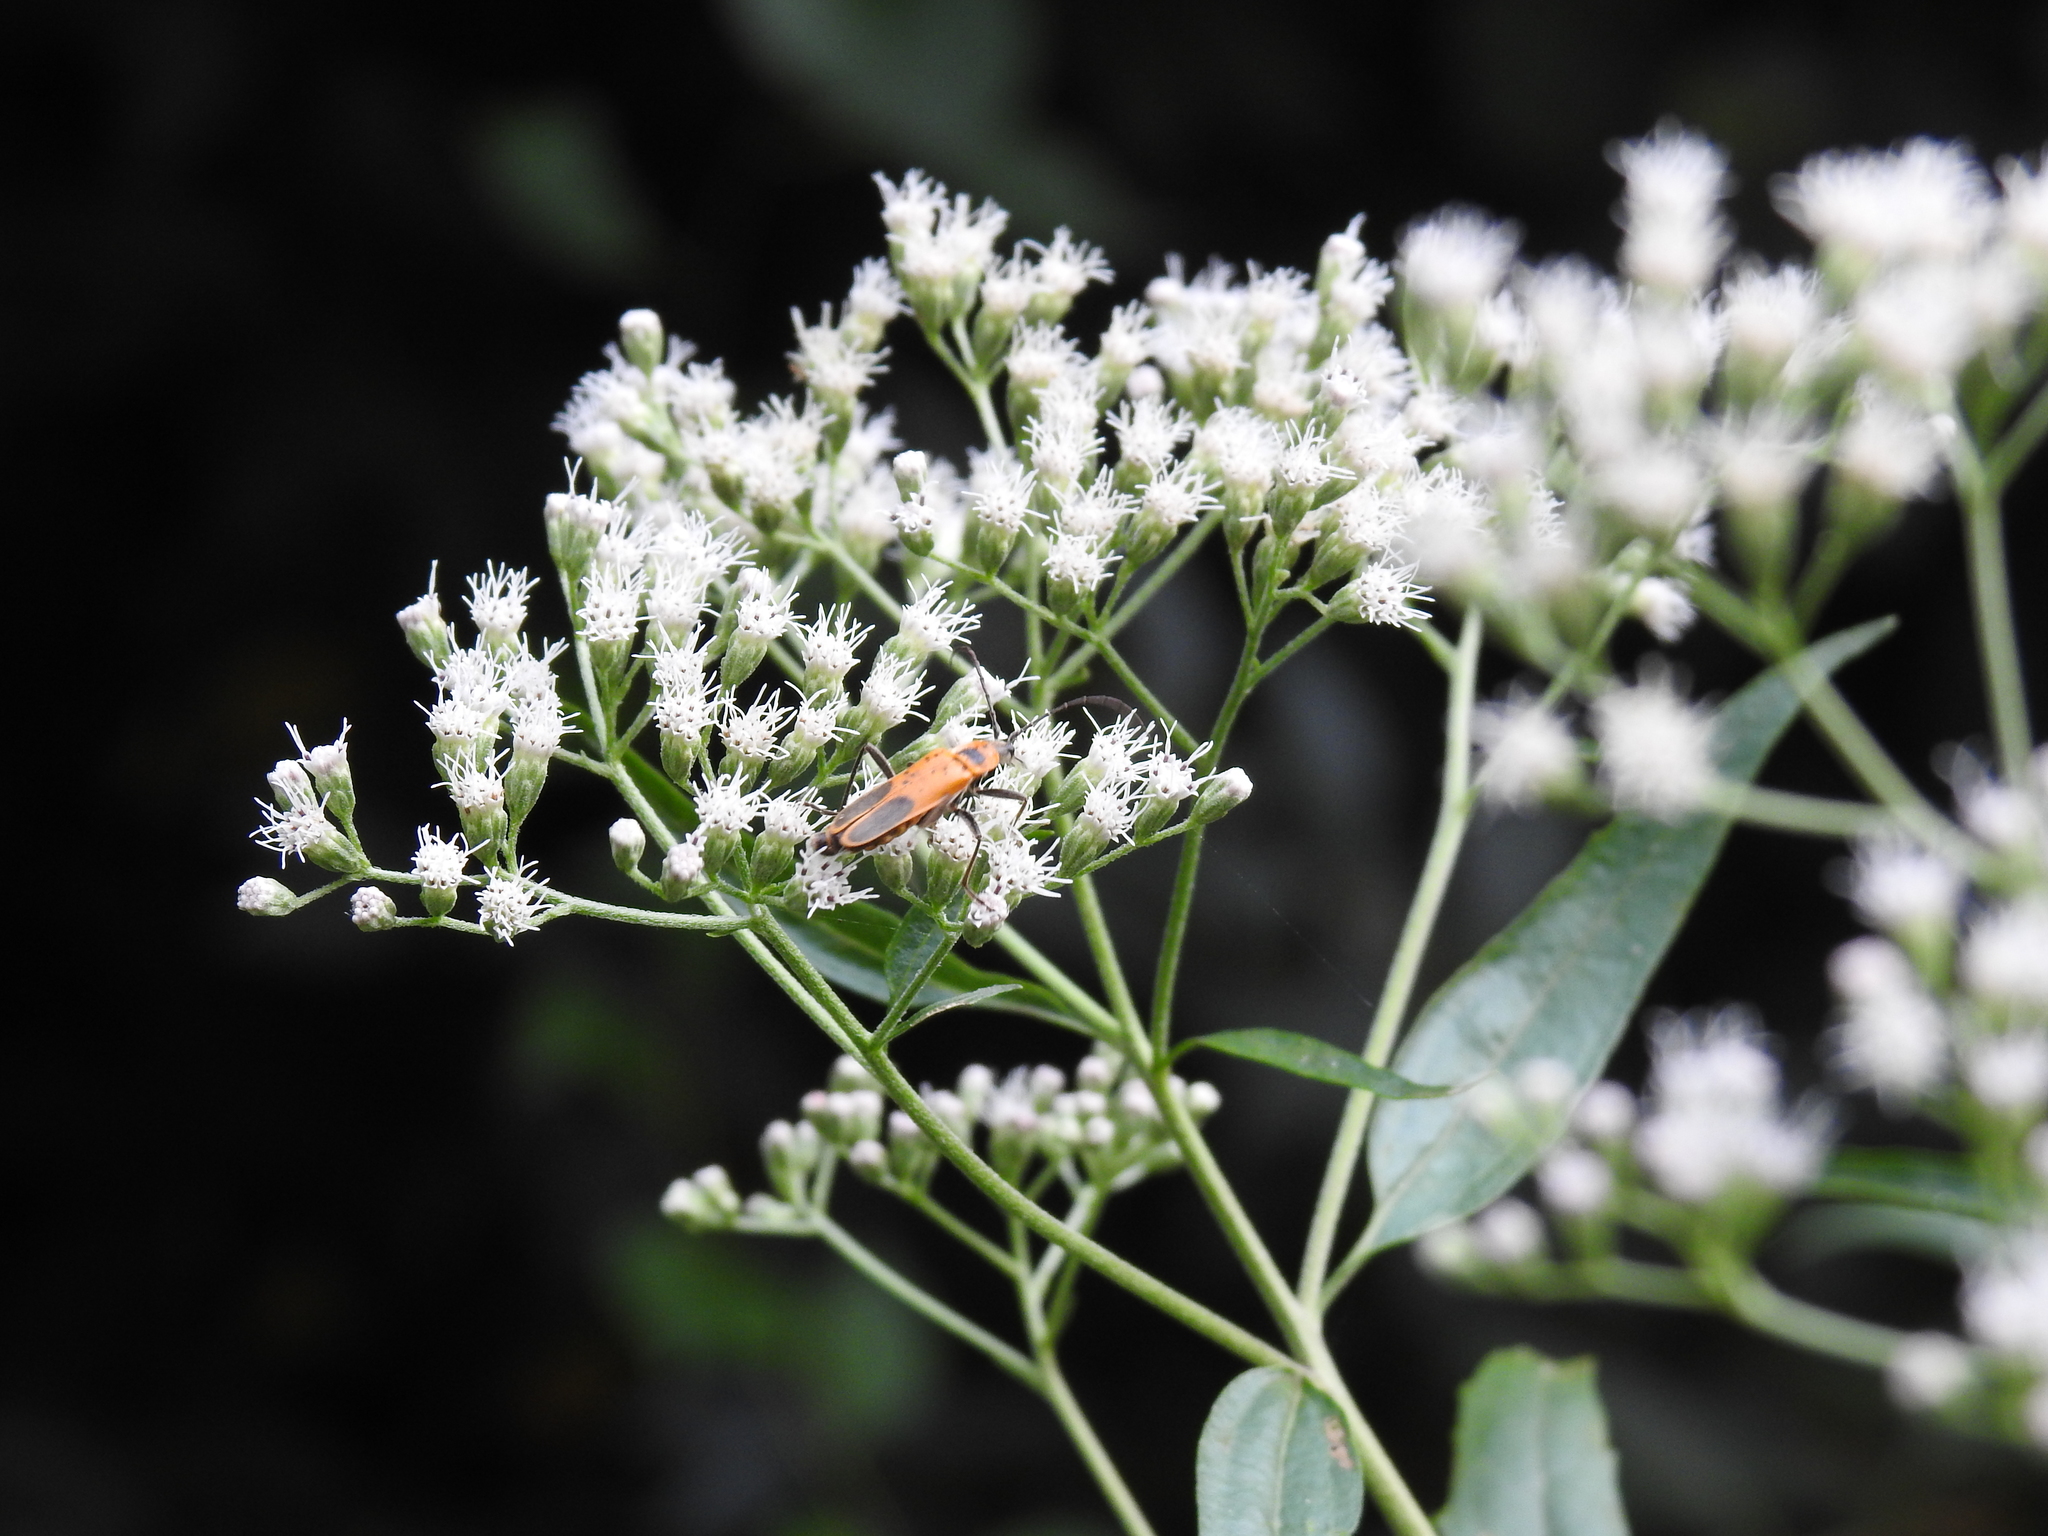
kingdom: Animalia
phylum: Arthropoda
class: Insecta
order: Coleoptera
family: Cantharidae
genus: Chauliognathus
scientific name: Chauliognathus pensylvanicus
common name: Goldenrod soldier beetle
